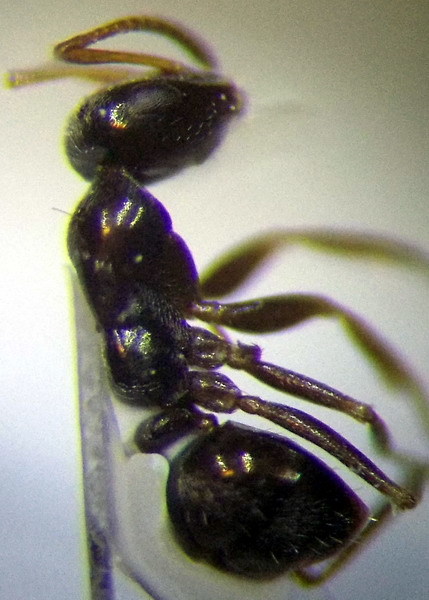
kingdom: Animalia
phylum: Arthropoda
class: Insecta
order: Hymenoptera
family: Formicidae
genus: Proformica
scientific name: Proformica epinotalis
